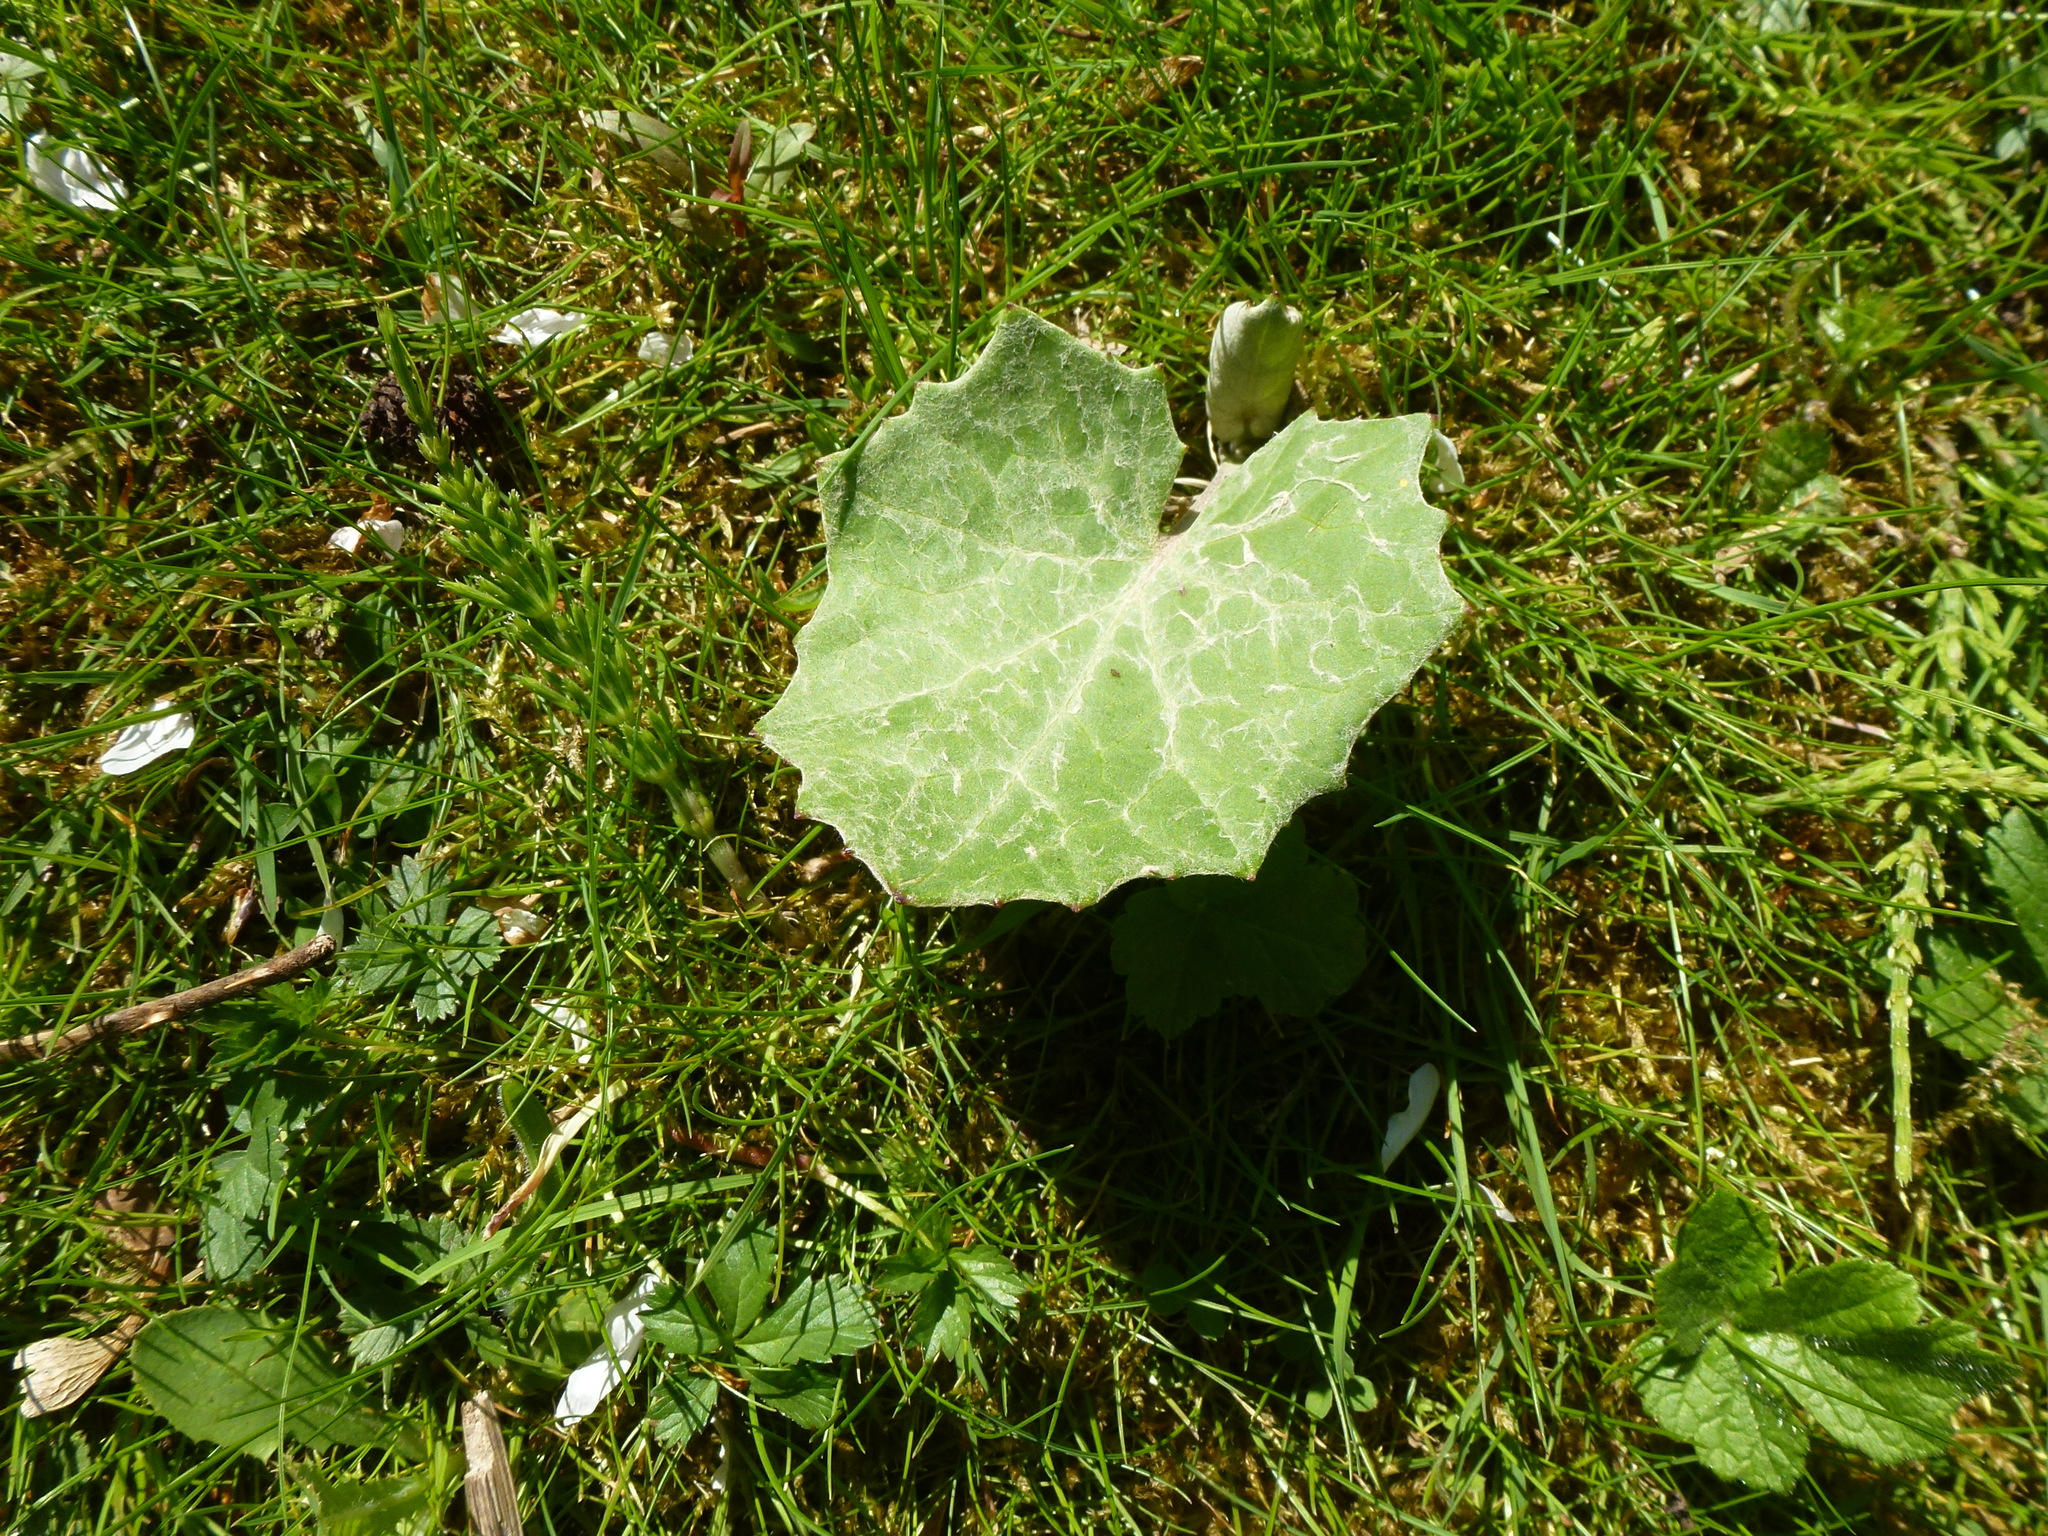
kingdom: Plantae
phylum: Tracheophyta
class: Magnoliopsida
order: Asterales
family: Asteraceae
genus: Tussilago
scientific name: Tussilago farfara
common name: Coltsfoot
